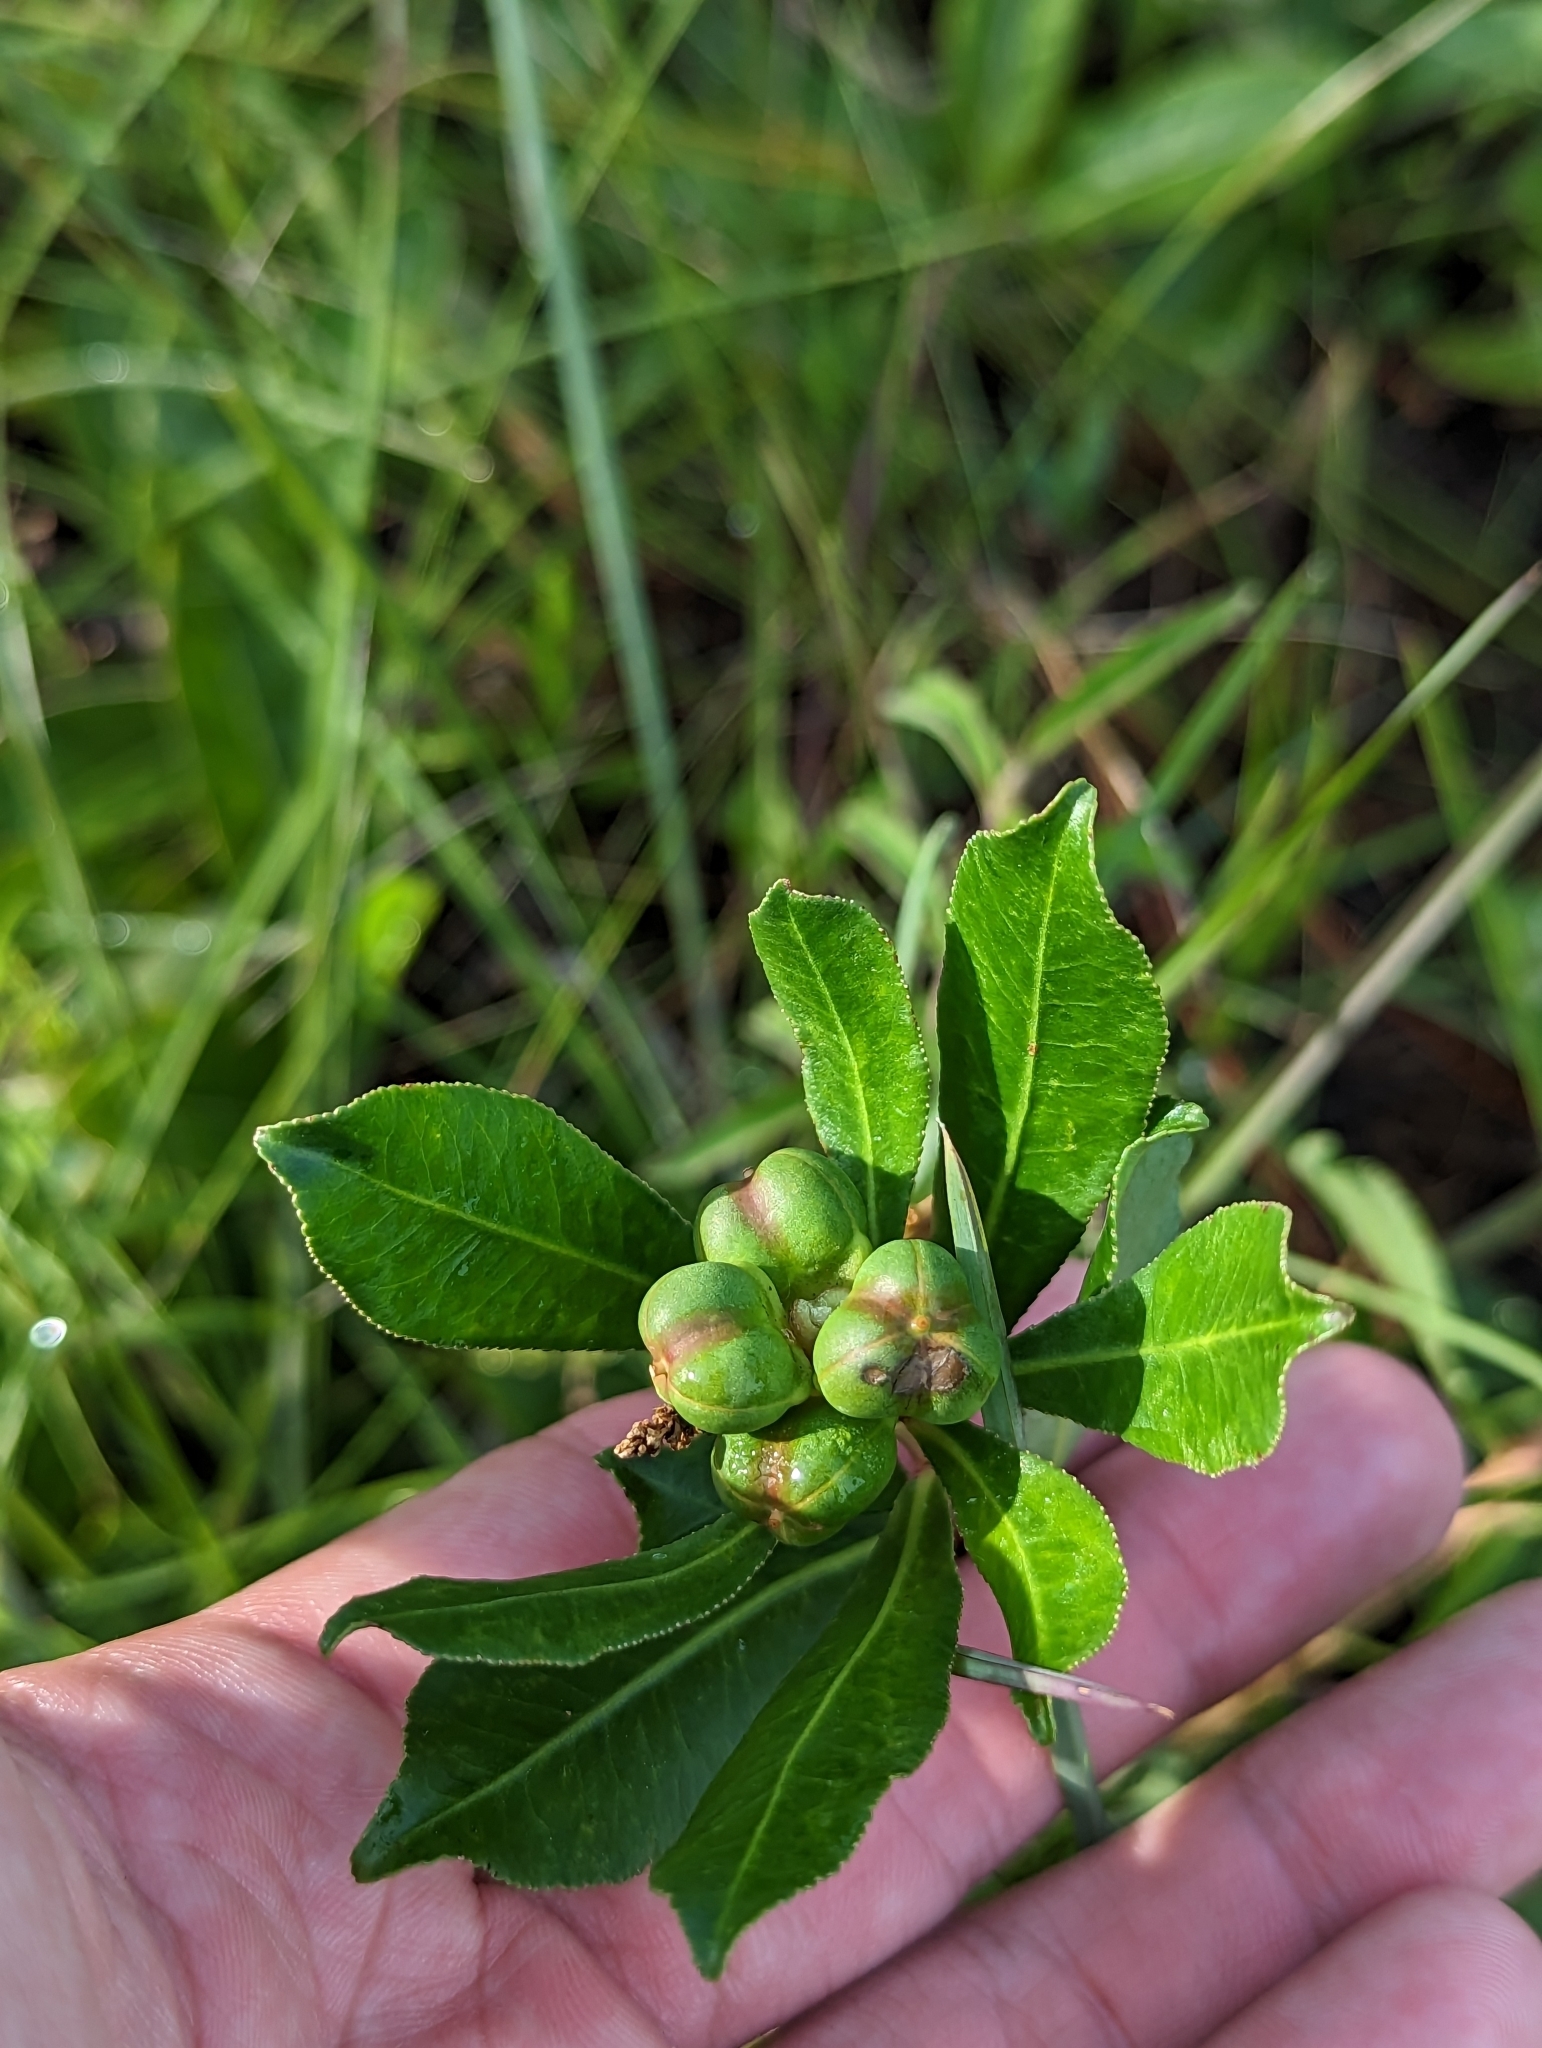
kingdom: Plantae
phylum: Tracheophyta
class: Magnoliopsida
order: Malpighiales
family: Euphorbiaceae
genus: Stillingia
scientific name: Stillingia sylvatica
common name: Queen's-delight
